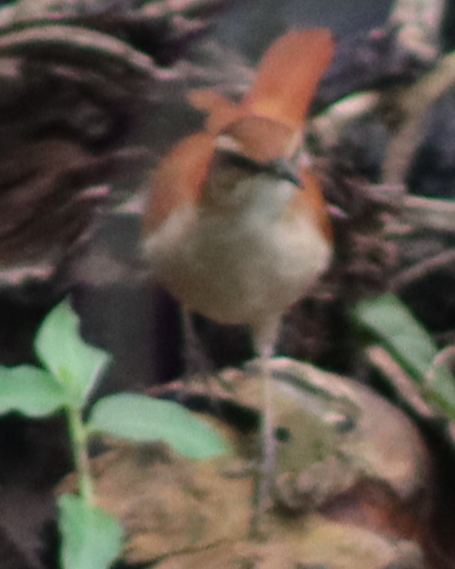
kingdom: Animalia
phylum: Chordata
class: Aves
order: Passeriformes
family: Furnariidae
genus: Furnarius
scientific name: Furnarius figulus
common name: Band-tailed hornero
